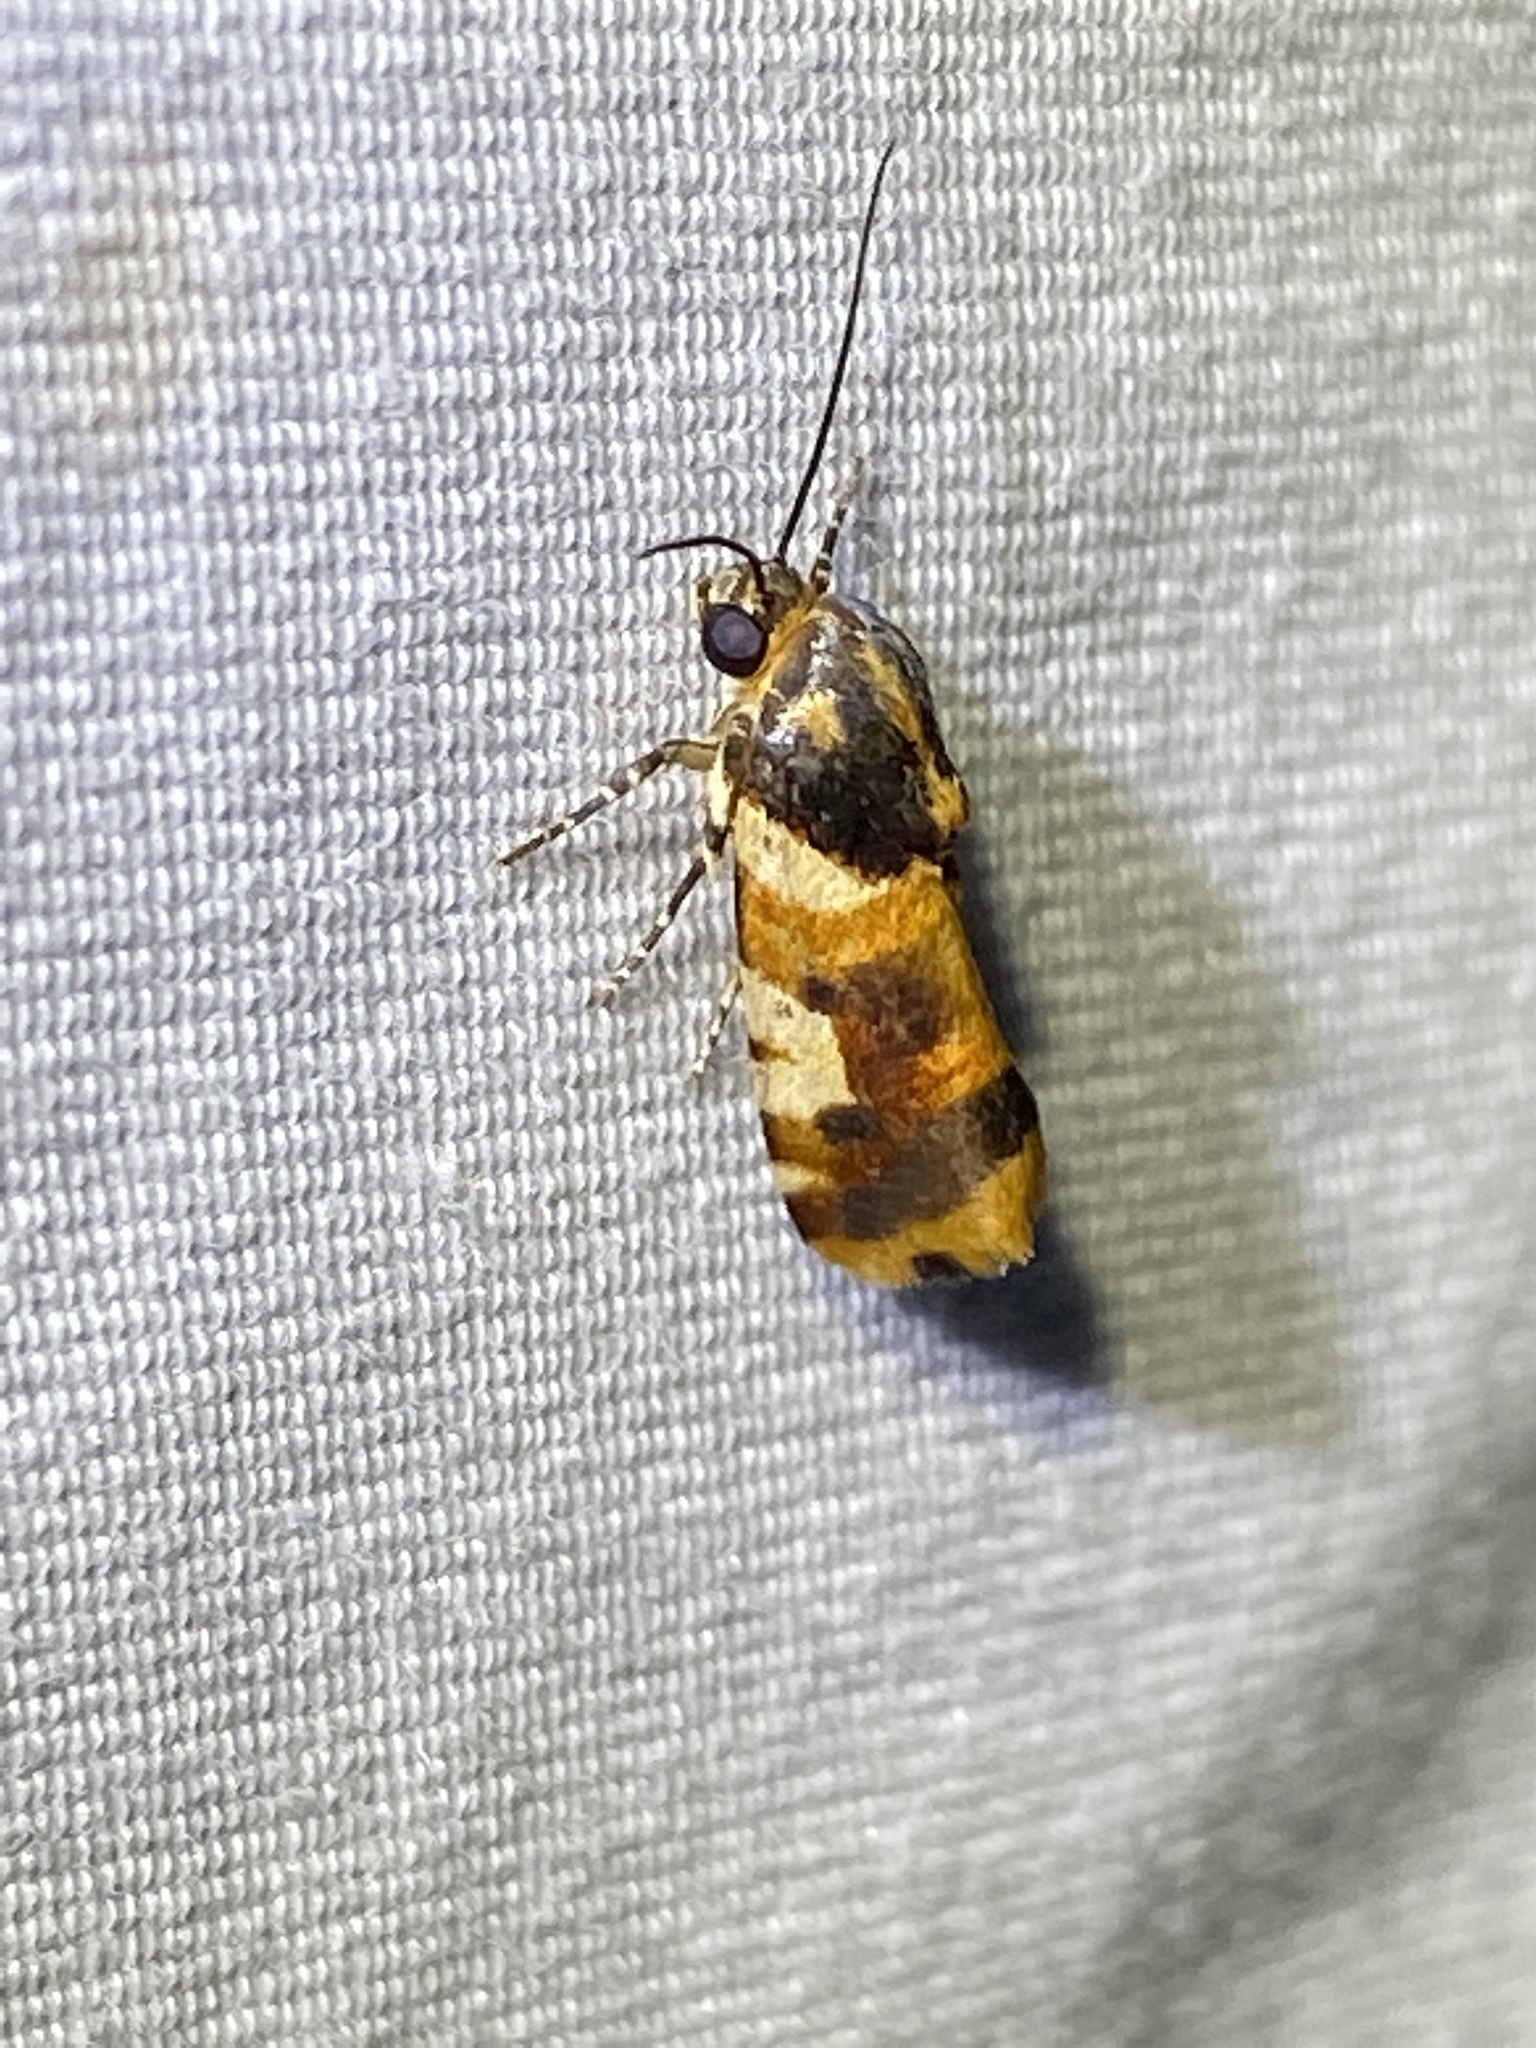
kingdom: Animalia
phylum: Arthropoda
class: Insecta
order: Lepidoptera
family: Noctuidae
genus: Acontia
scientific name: Acontia dama
